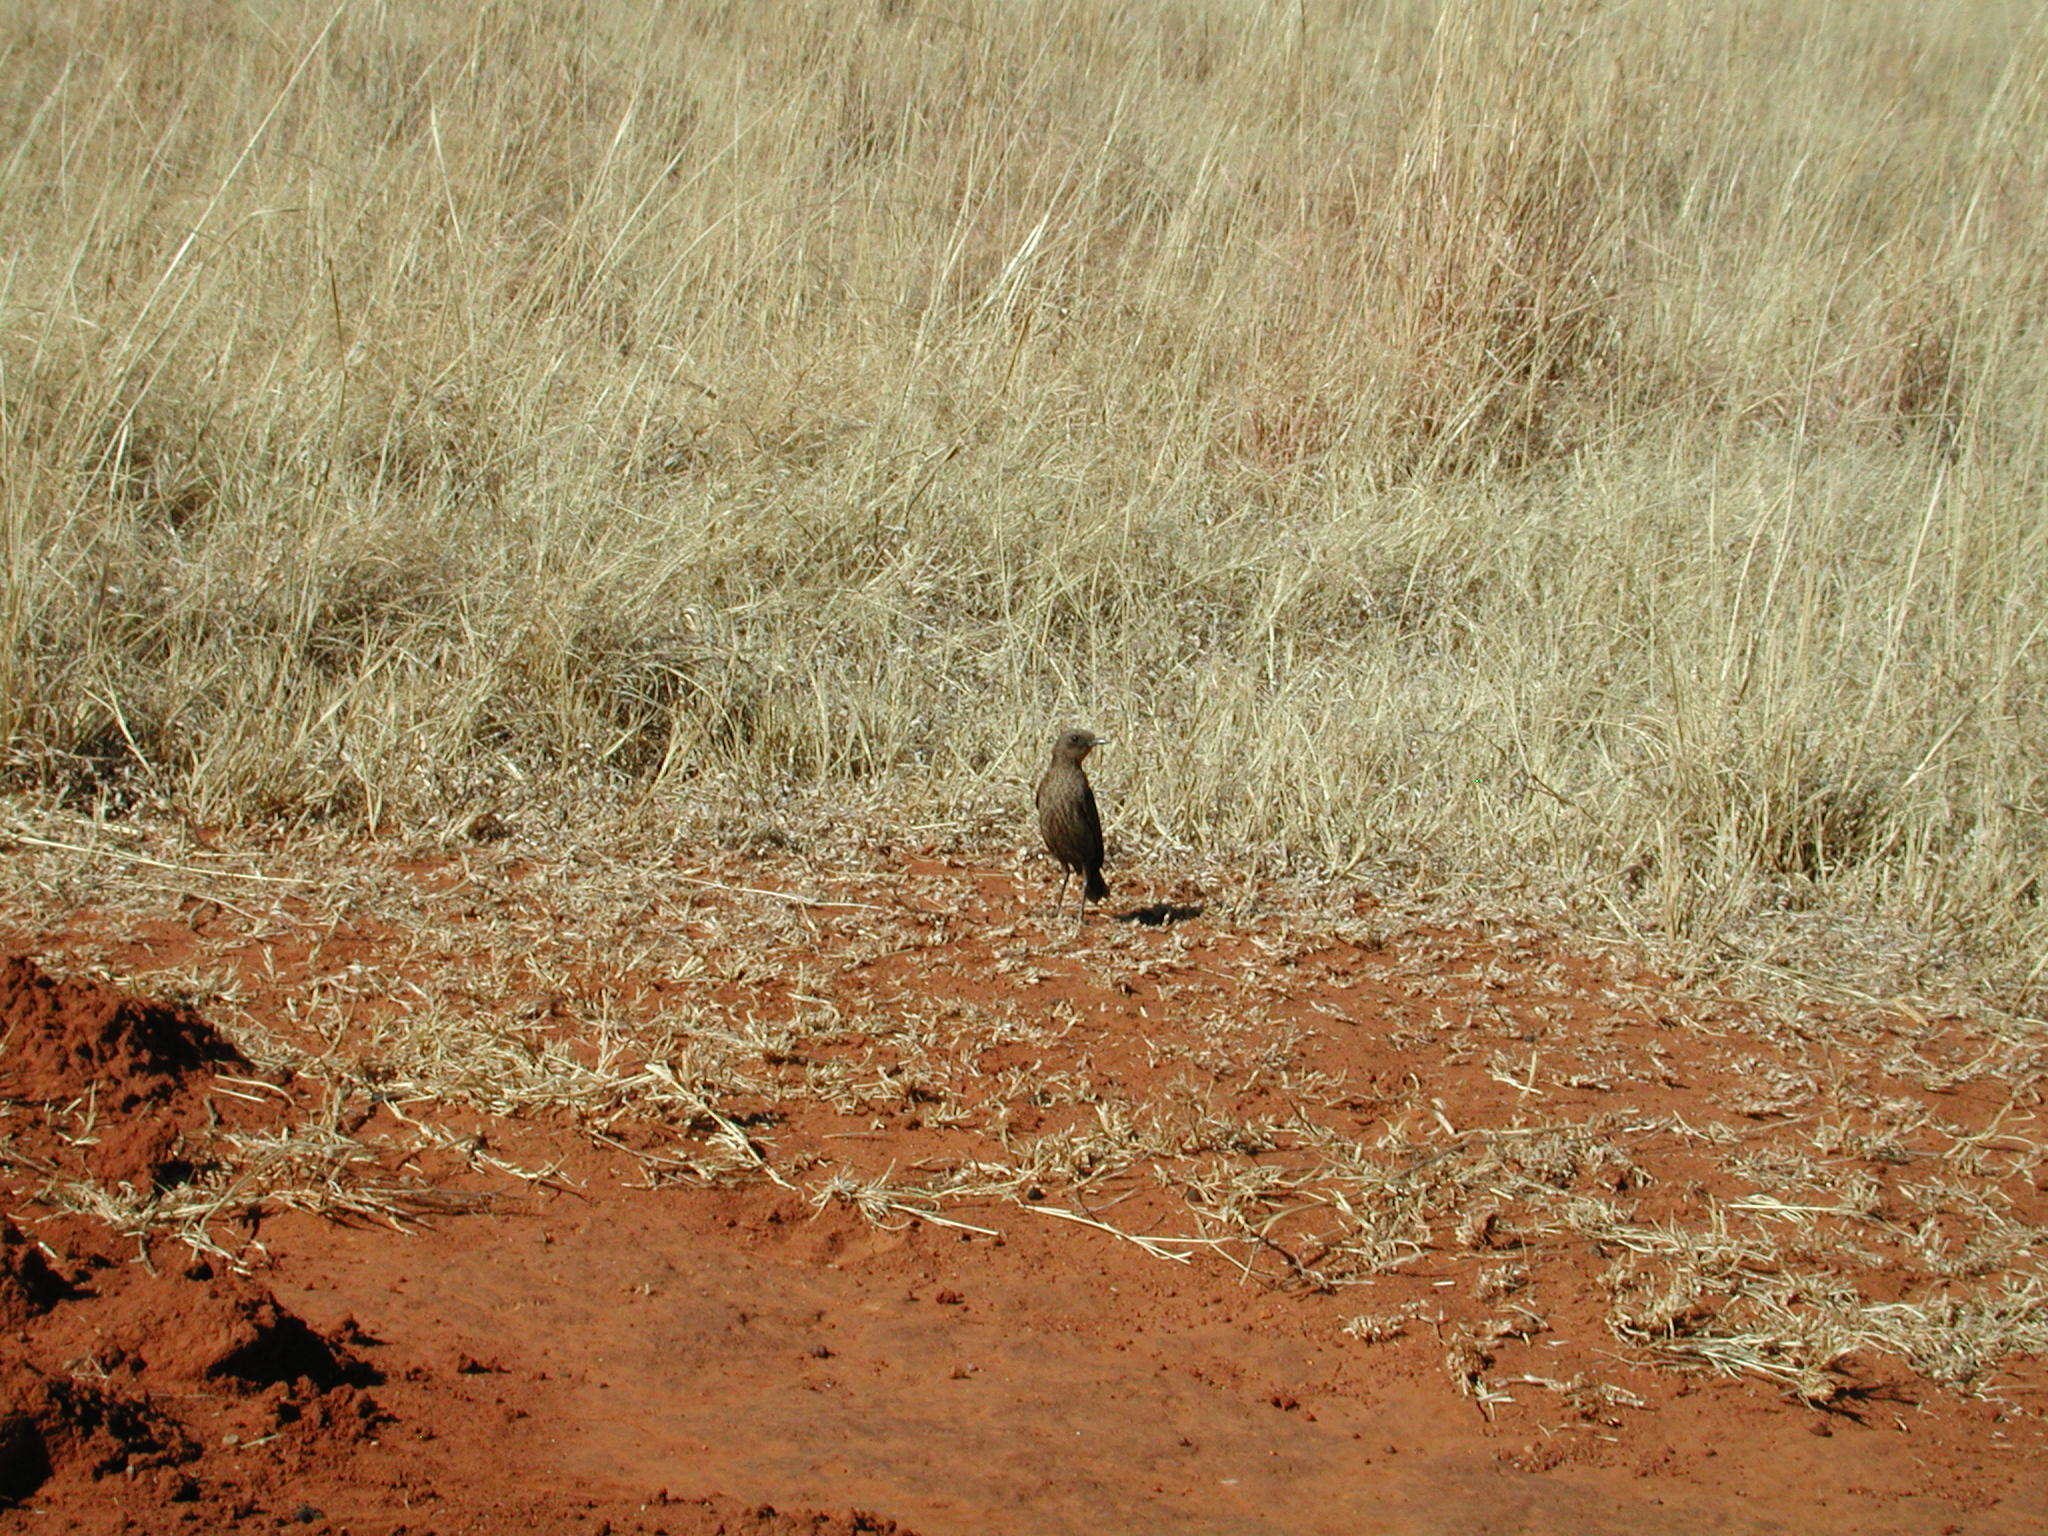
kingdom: Animalia
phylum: Chordata
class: Aves
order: Passeriformes
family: Muscicapidae
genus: Myrmecocichla
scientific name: Myrmecocichla formicivora
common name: Ant-eating chat
